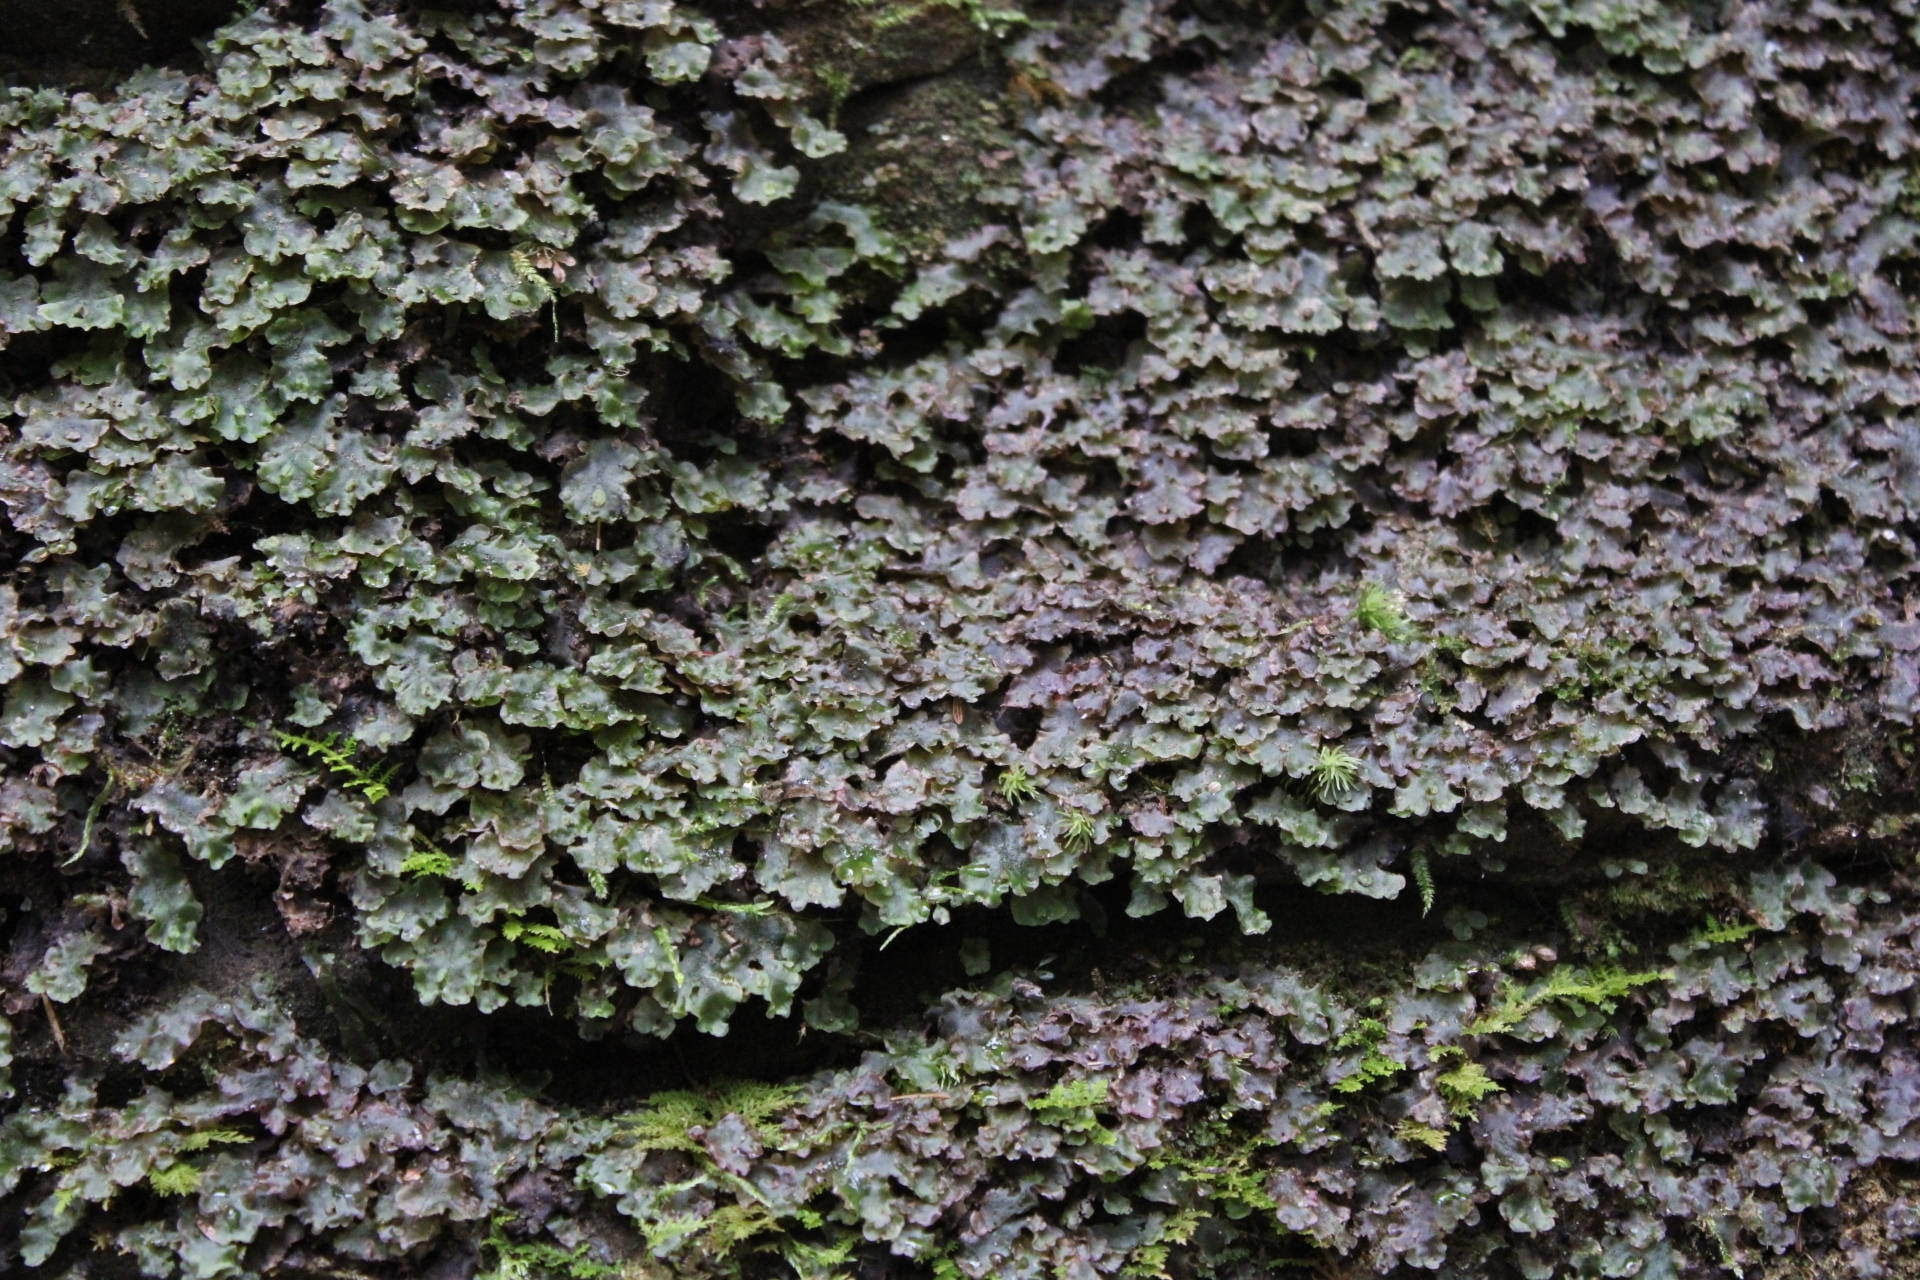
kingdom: Plantae
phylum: Marchantiophyta
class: Jungermanniopsida
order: Pelliales
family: Pelliaceae
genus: Pellia
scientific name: Pellia epiphylla
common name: Common pellia
